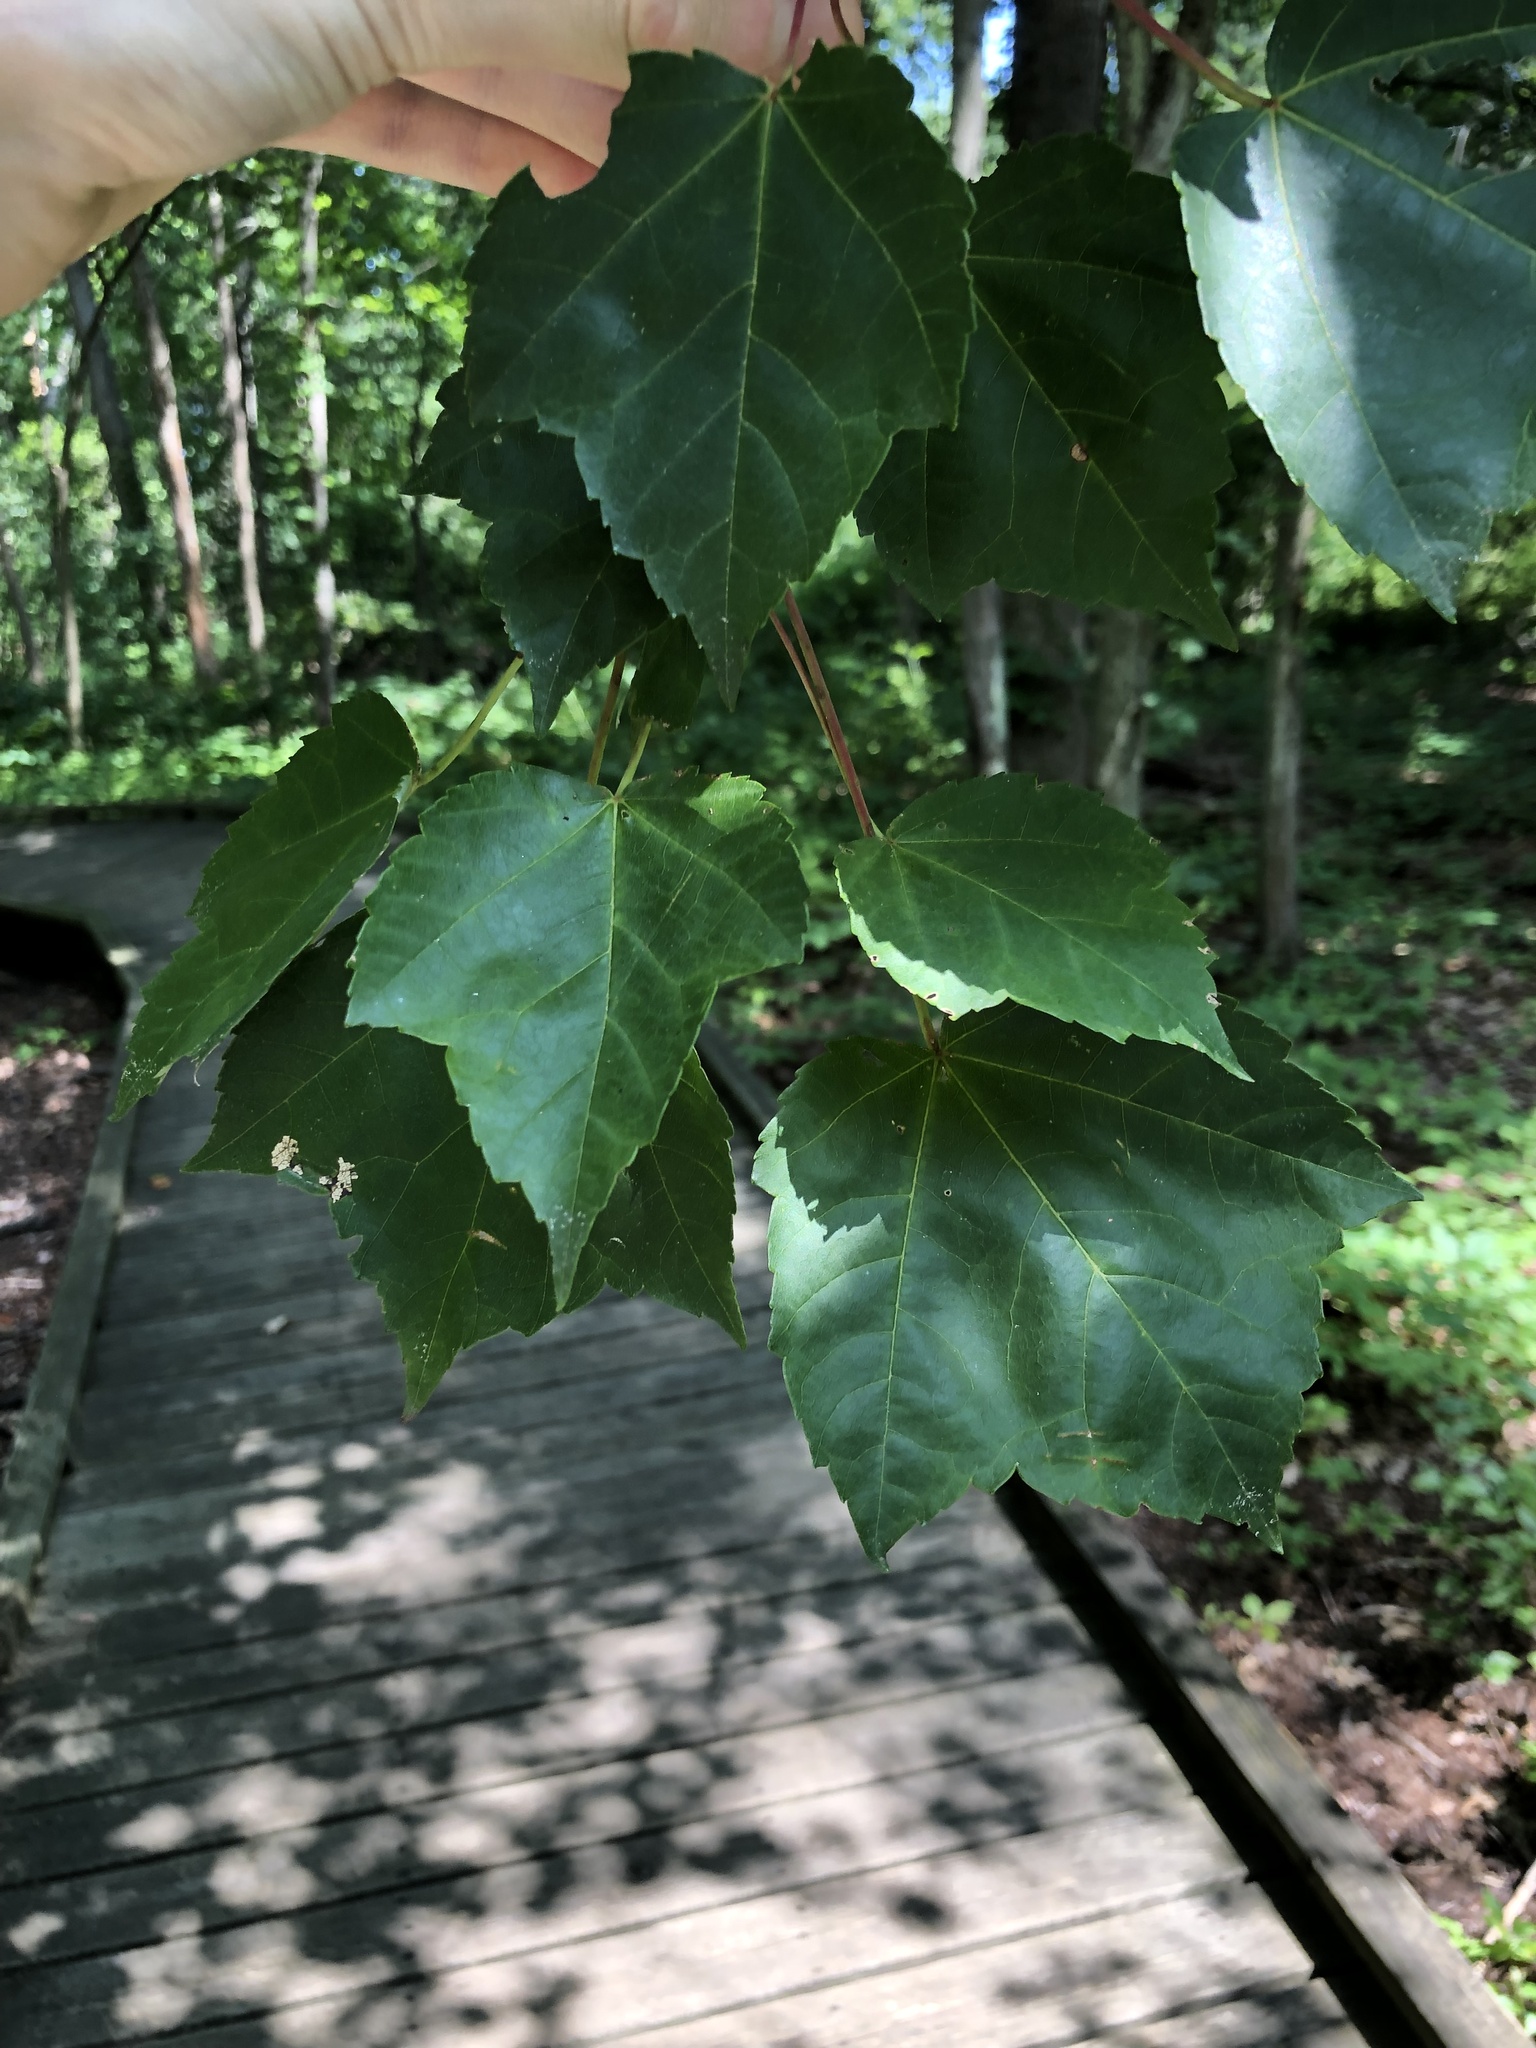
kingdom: Plantae
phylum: Tracheophyta
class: Magnoliopsida
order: Sapindales
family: Sapindaceae
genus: Acer
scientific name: Acer rubrum
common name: Red maple
